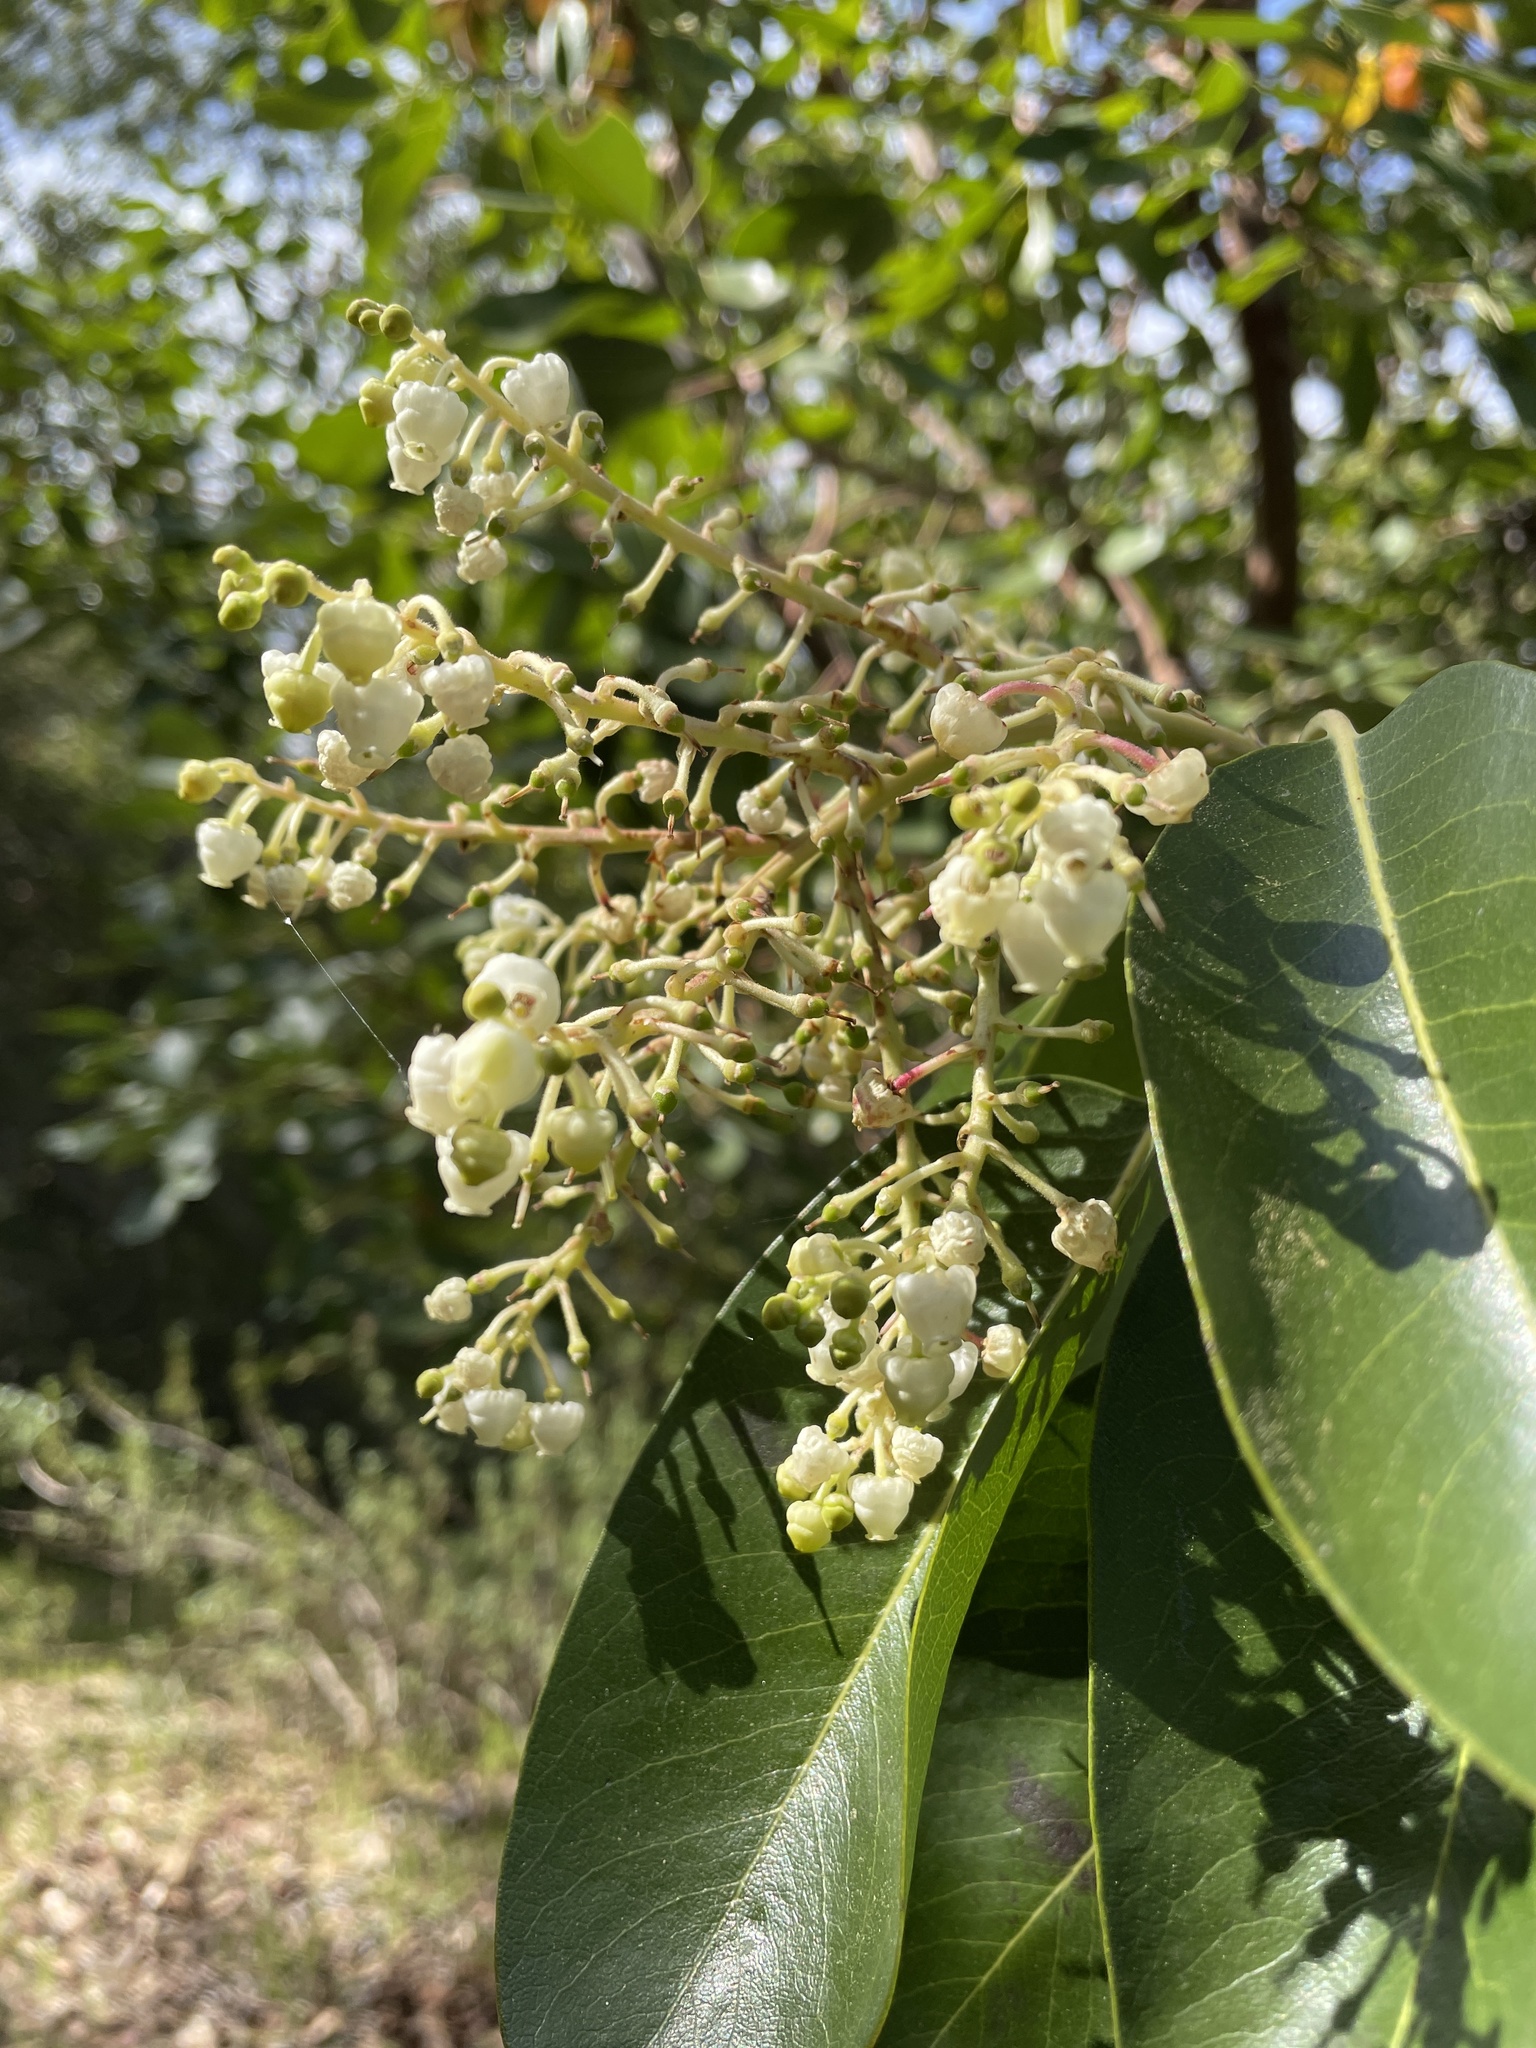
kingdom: Plantae
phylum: Tracheophyta
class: Magnoliopsida
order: Ericales
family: Ericaceae
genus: Arbutus
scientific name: Arbutus menziesii
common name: Pacific madrone
